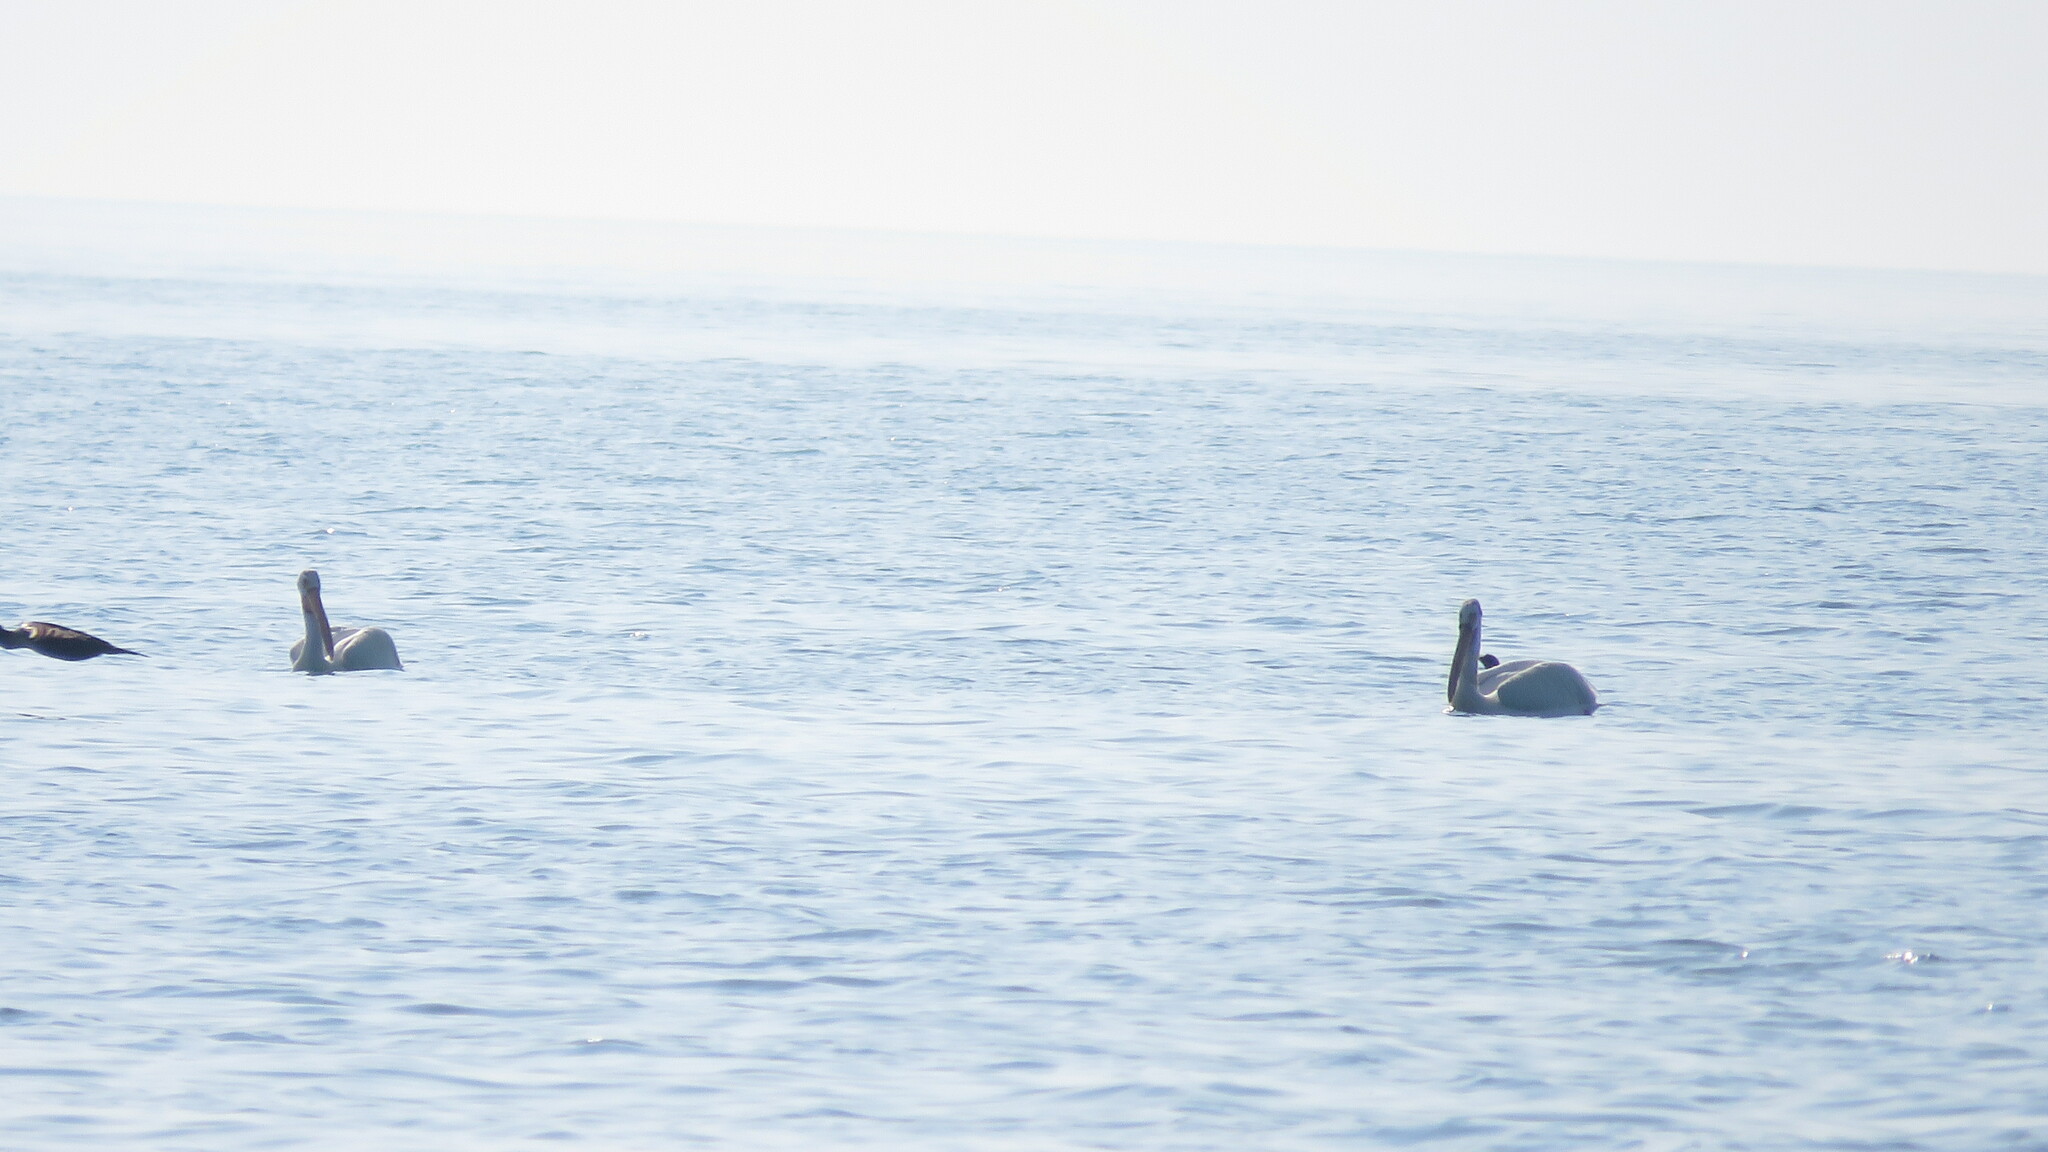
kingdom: Animalia
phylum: Chordata
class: Aves
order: Pelecaniformes
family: Pelecanidae
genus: Pelecanus
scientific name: Pelecanus erythrorhynchos
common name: American white pelican
